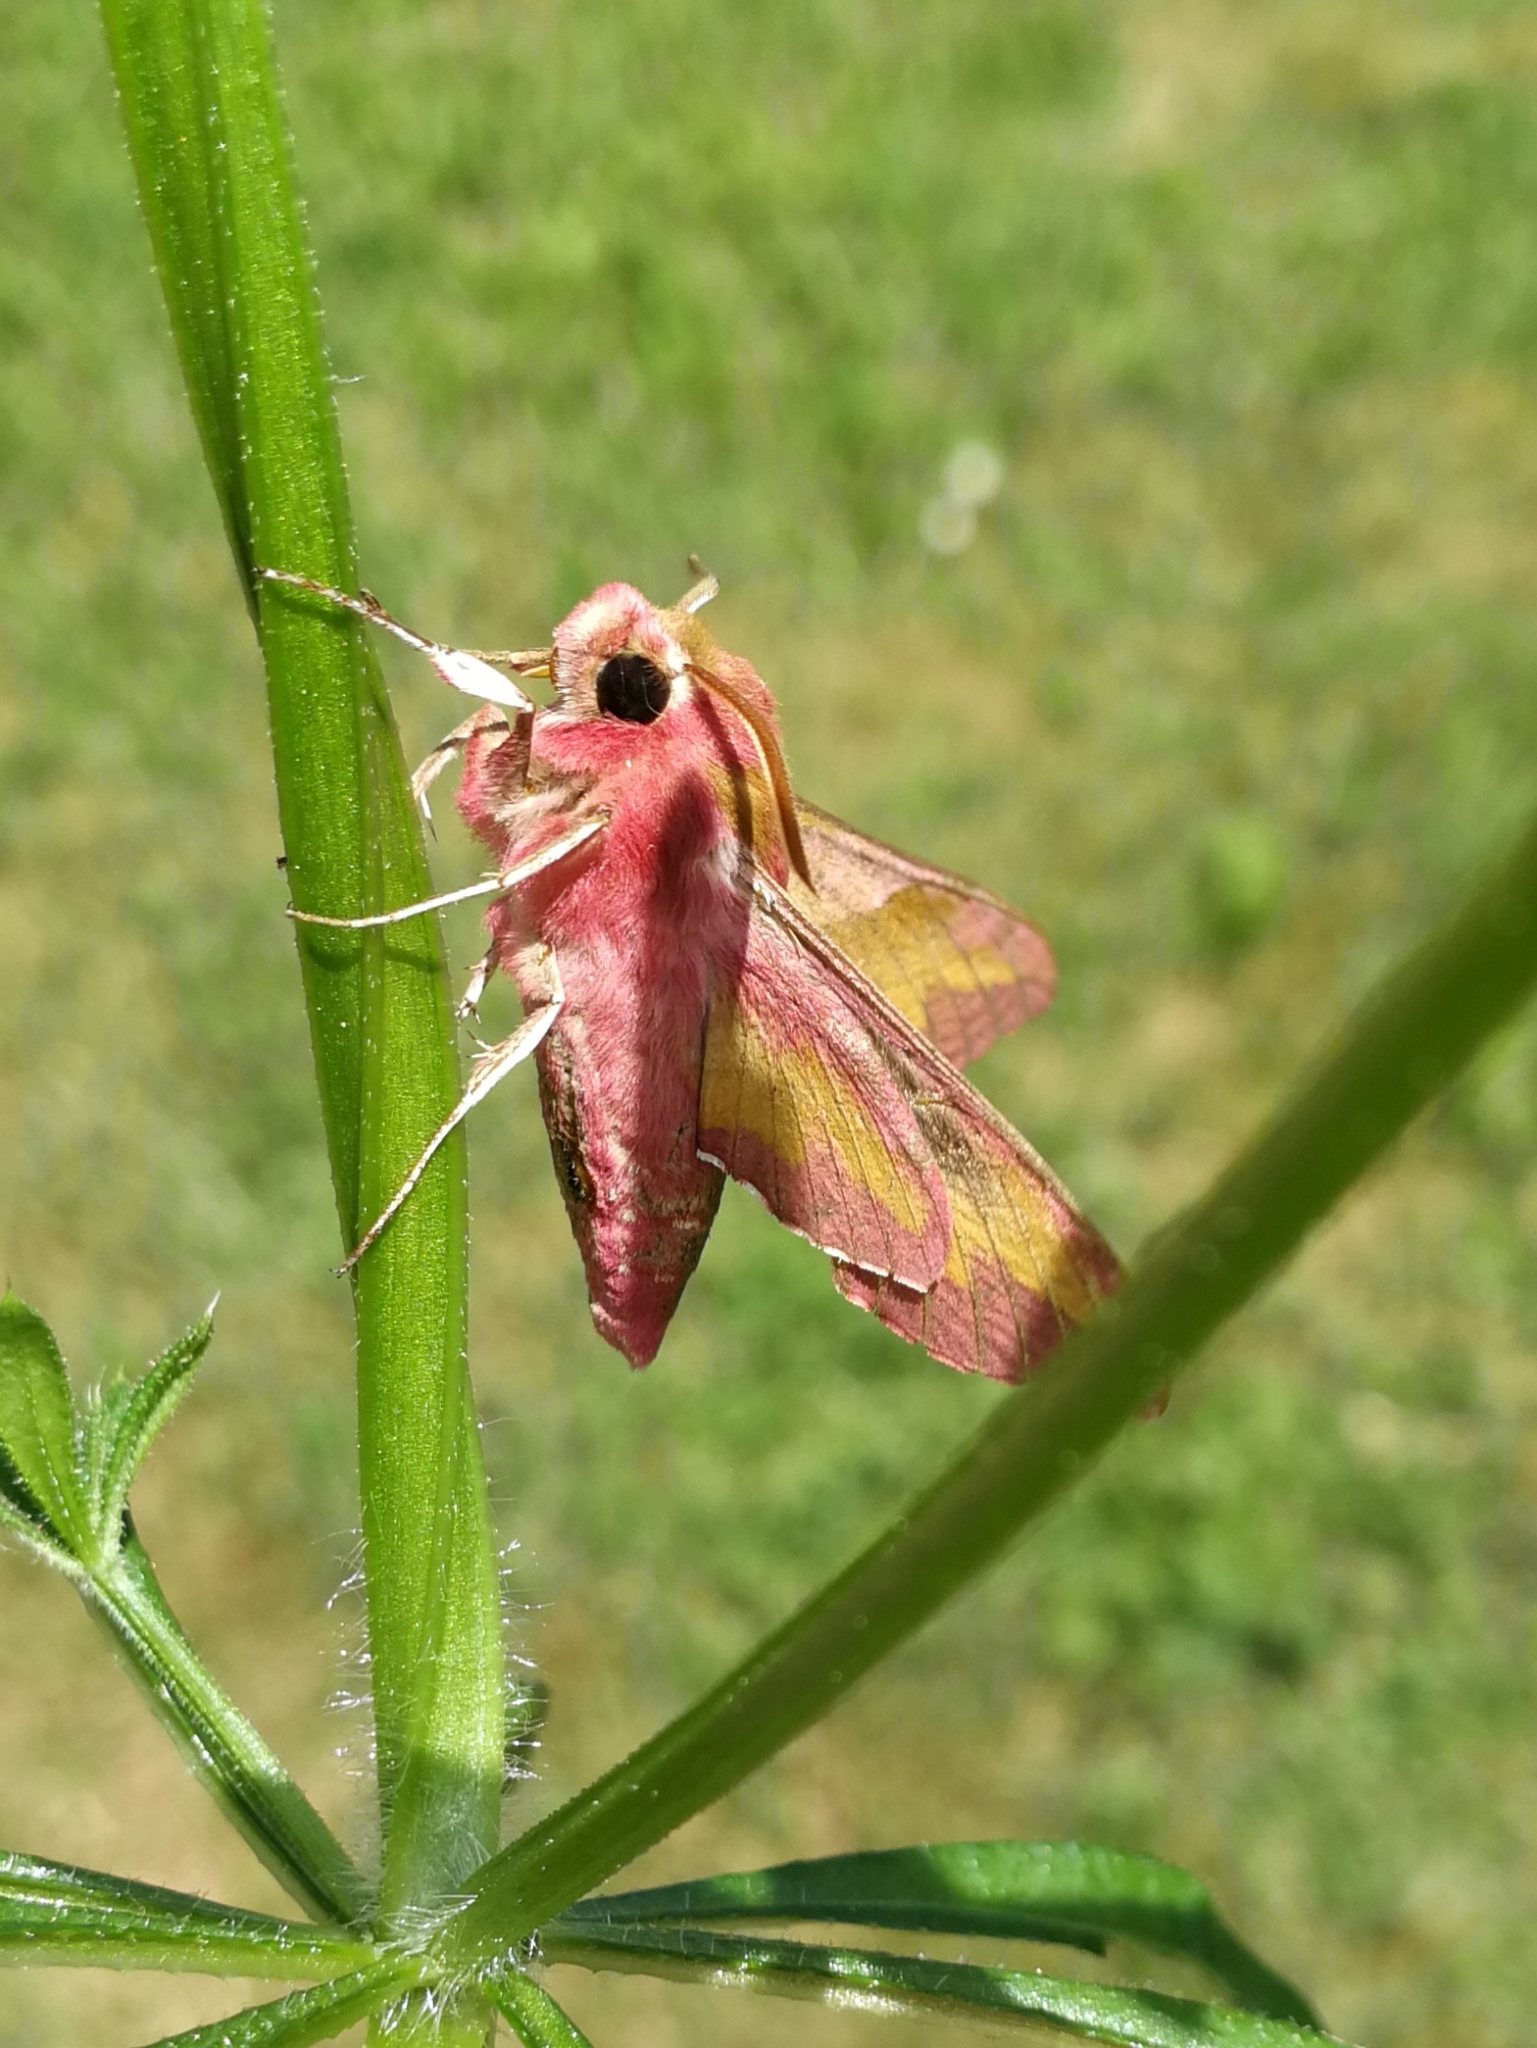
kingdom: Animalia
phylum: Arthropoda
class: Insecta
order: Lepidoptera
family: Sphingidae
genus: Deilephila
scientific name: Deilephila porcellus
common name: Small elephant hawk-moth
